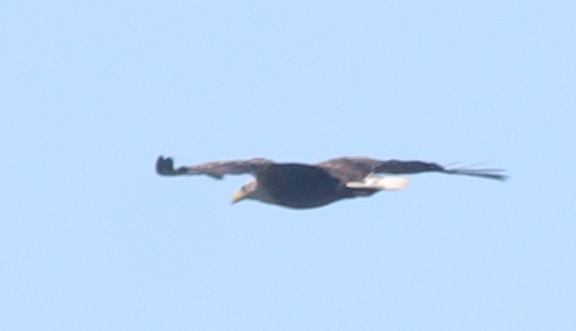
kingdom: Animalia
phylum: Chordata
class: Aves
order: Accipitriformes
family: Accipitridae
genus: Haliaeetus
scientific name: Haliaeetus albicilla
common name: White-tailed eagle
